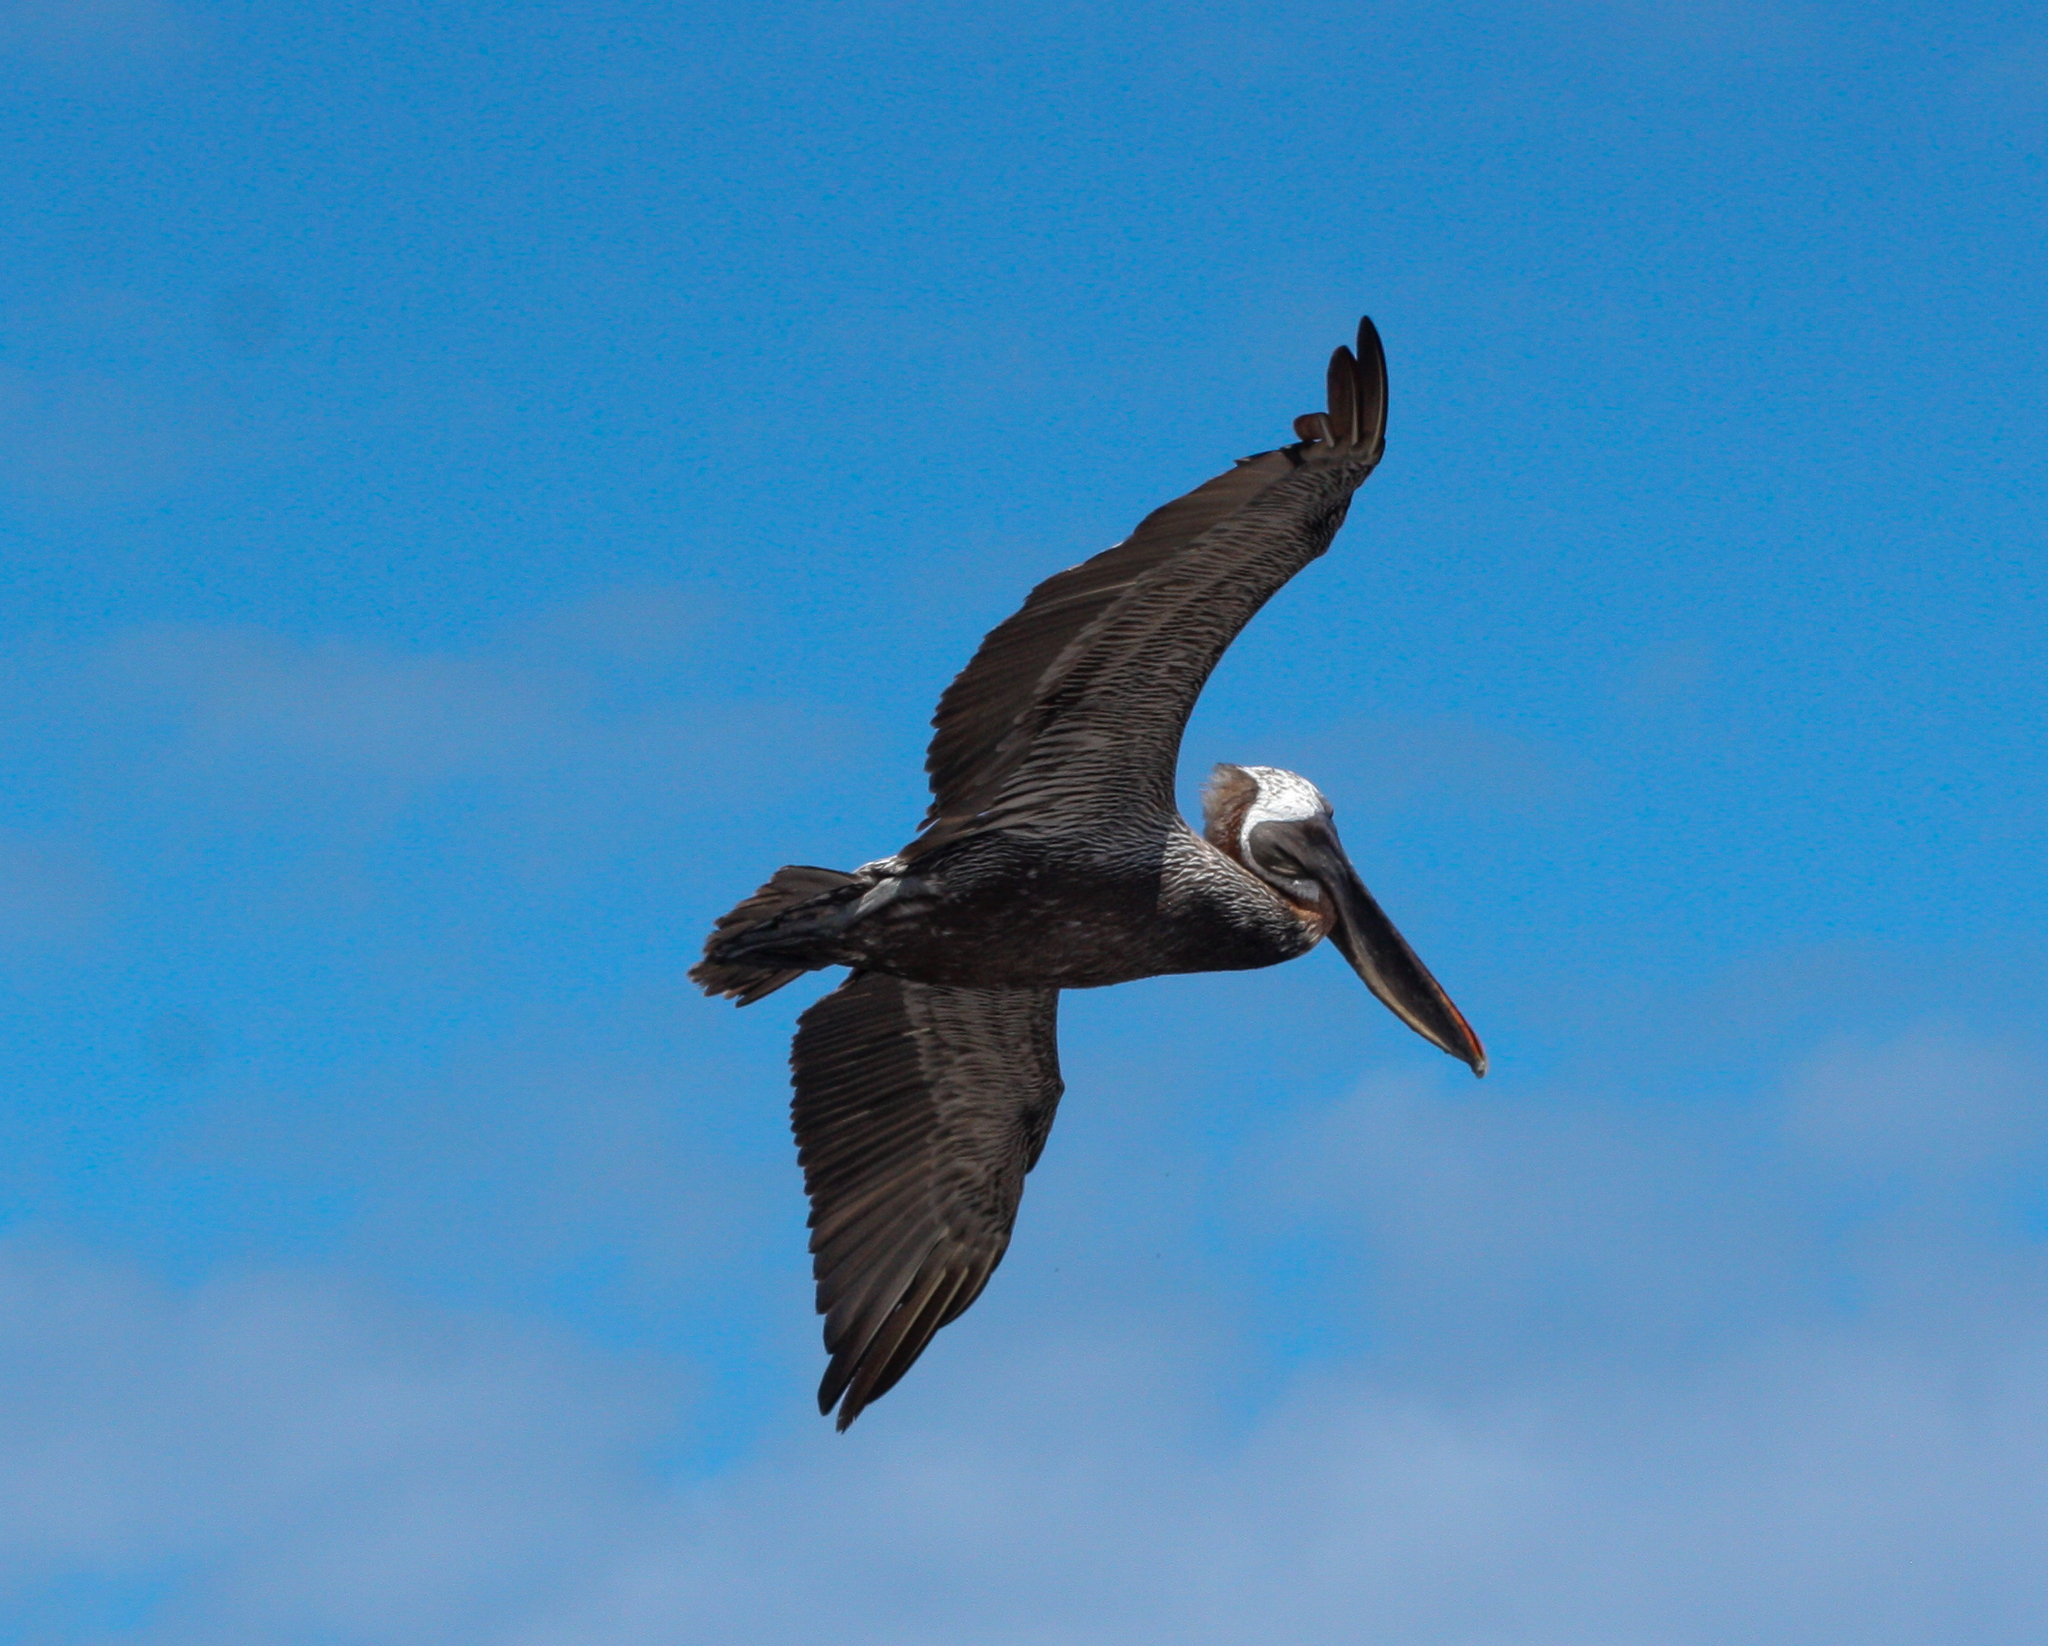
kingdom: Animalia
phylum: Chordata
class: Aves
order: Pelecaniformes
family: Pelecanidae
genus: Pelecanus
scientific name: Pelecanus occidentalis
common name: Brown pelican
